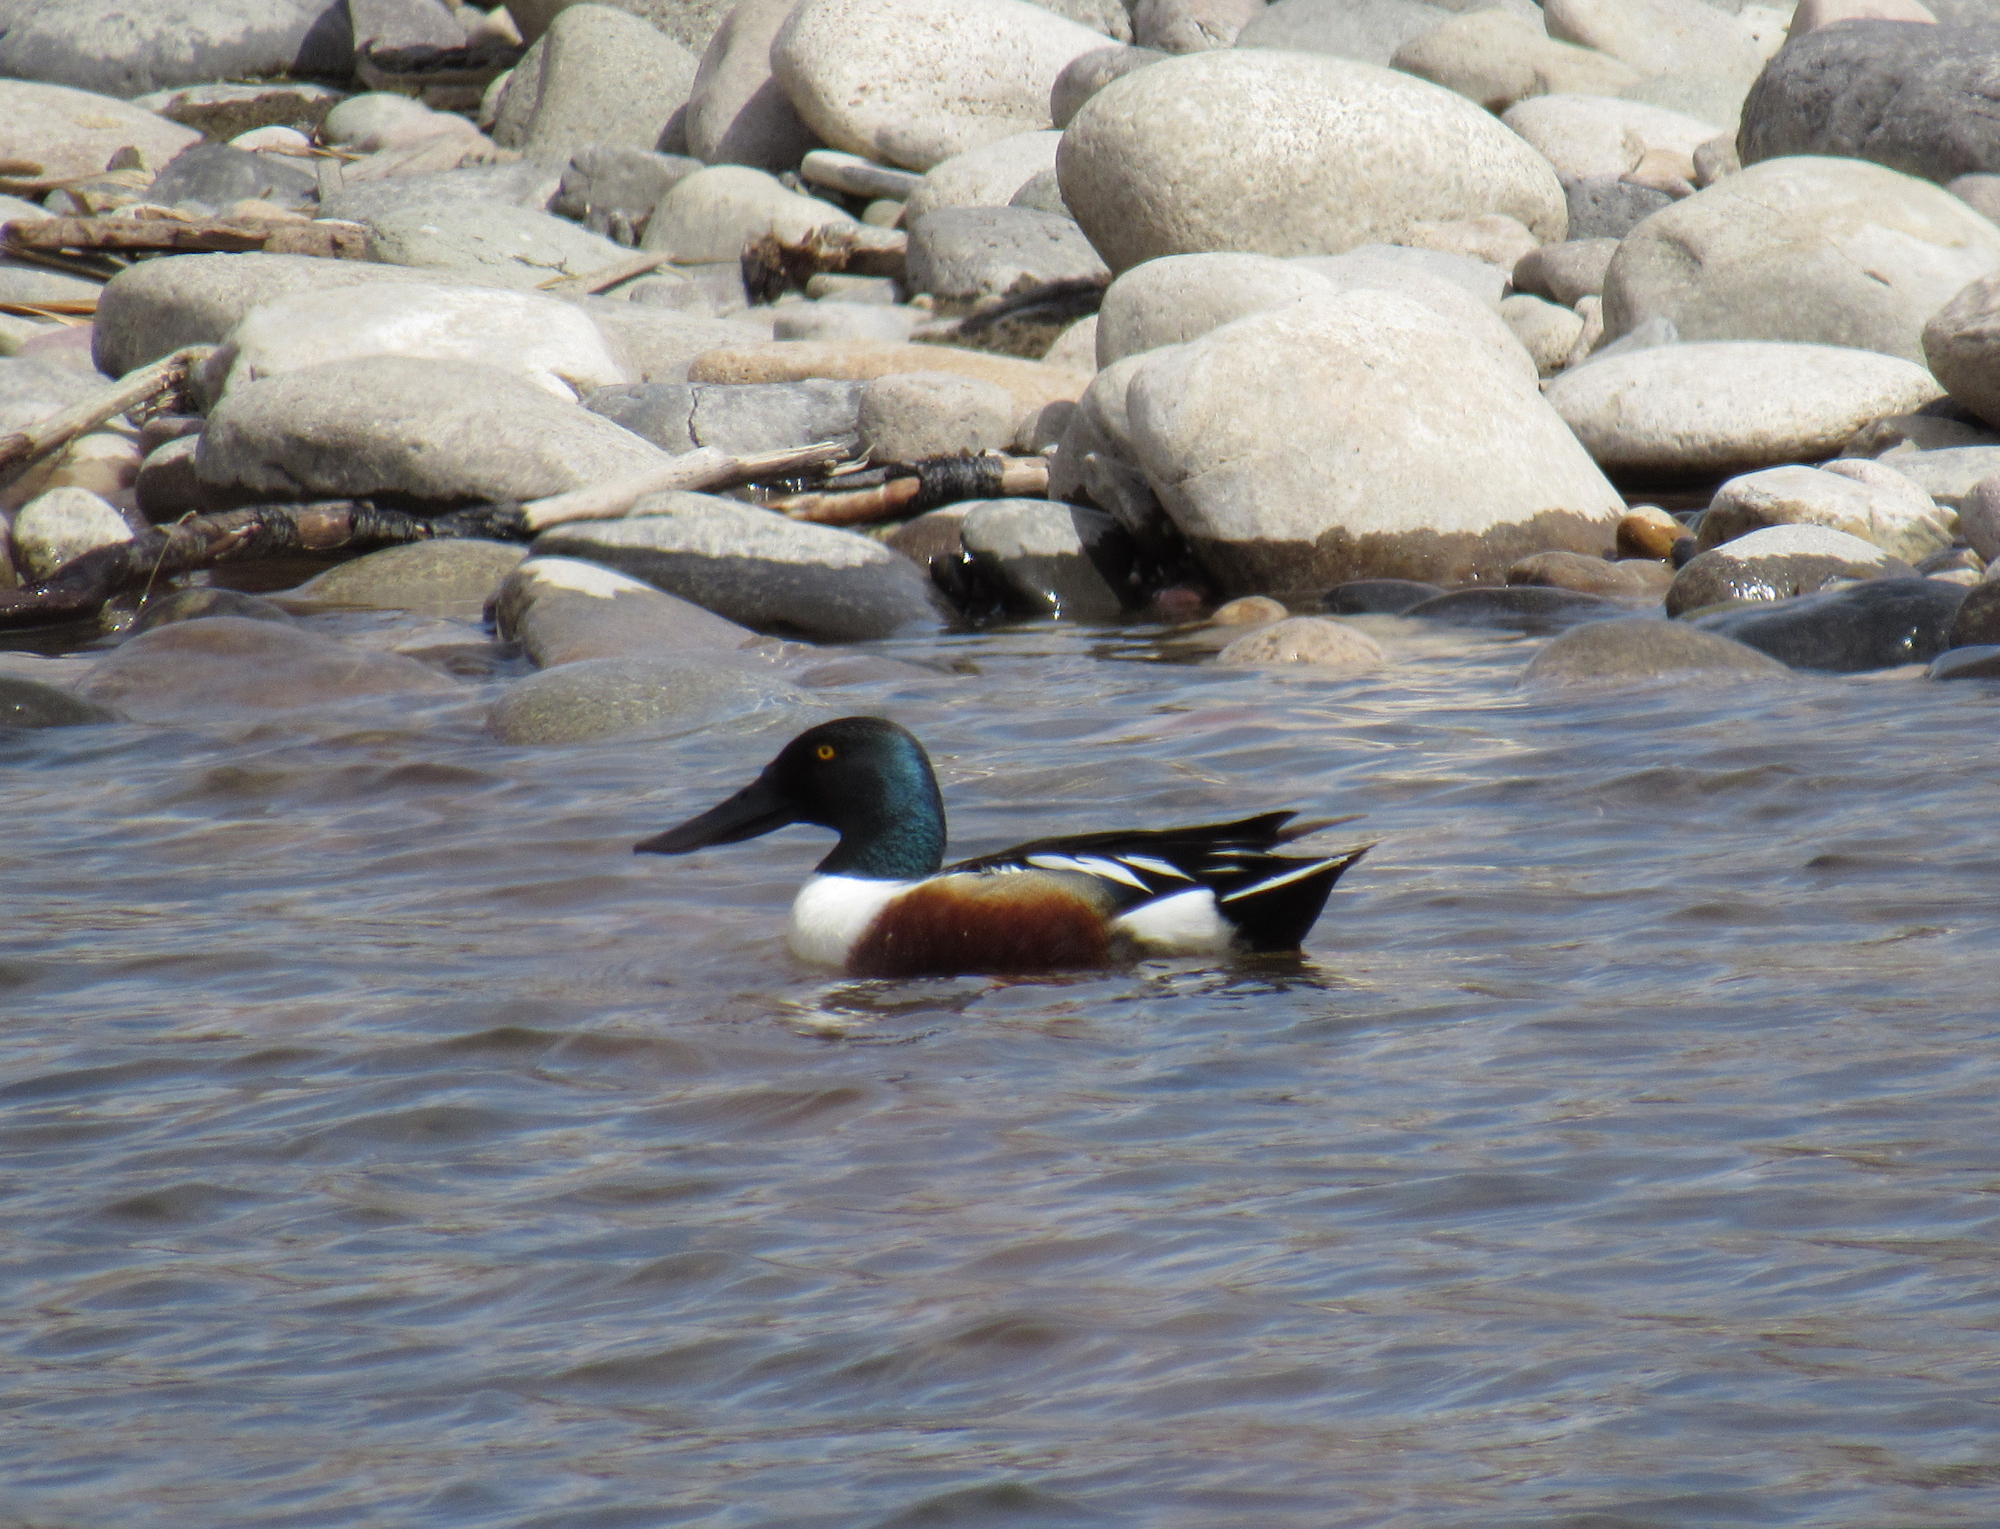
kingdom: Animalia
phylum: Chordata
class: Aves
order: Anseriformes
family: Anatidae
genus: Spatula
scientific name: Spatula clypeata
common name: Northern shoveler
